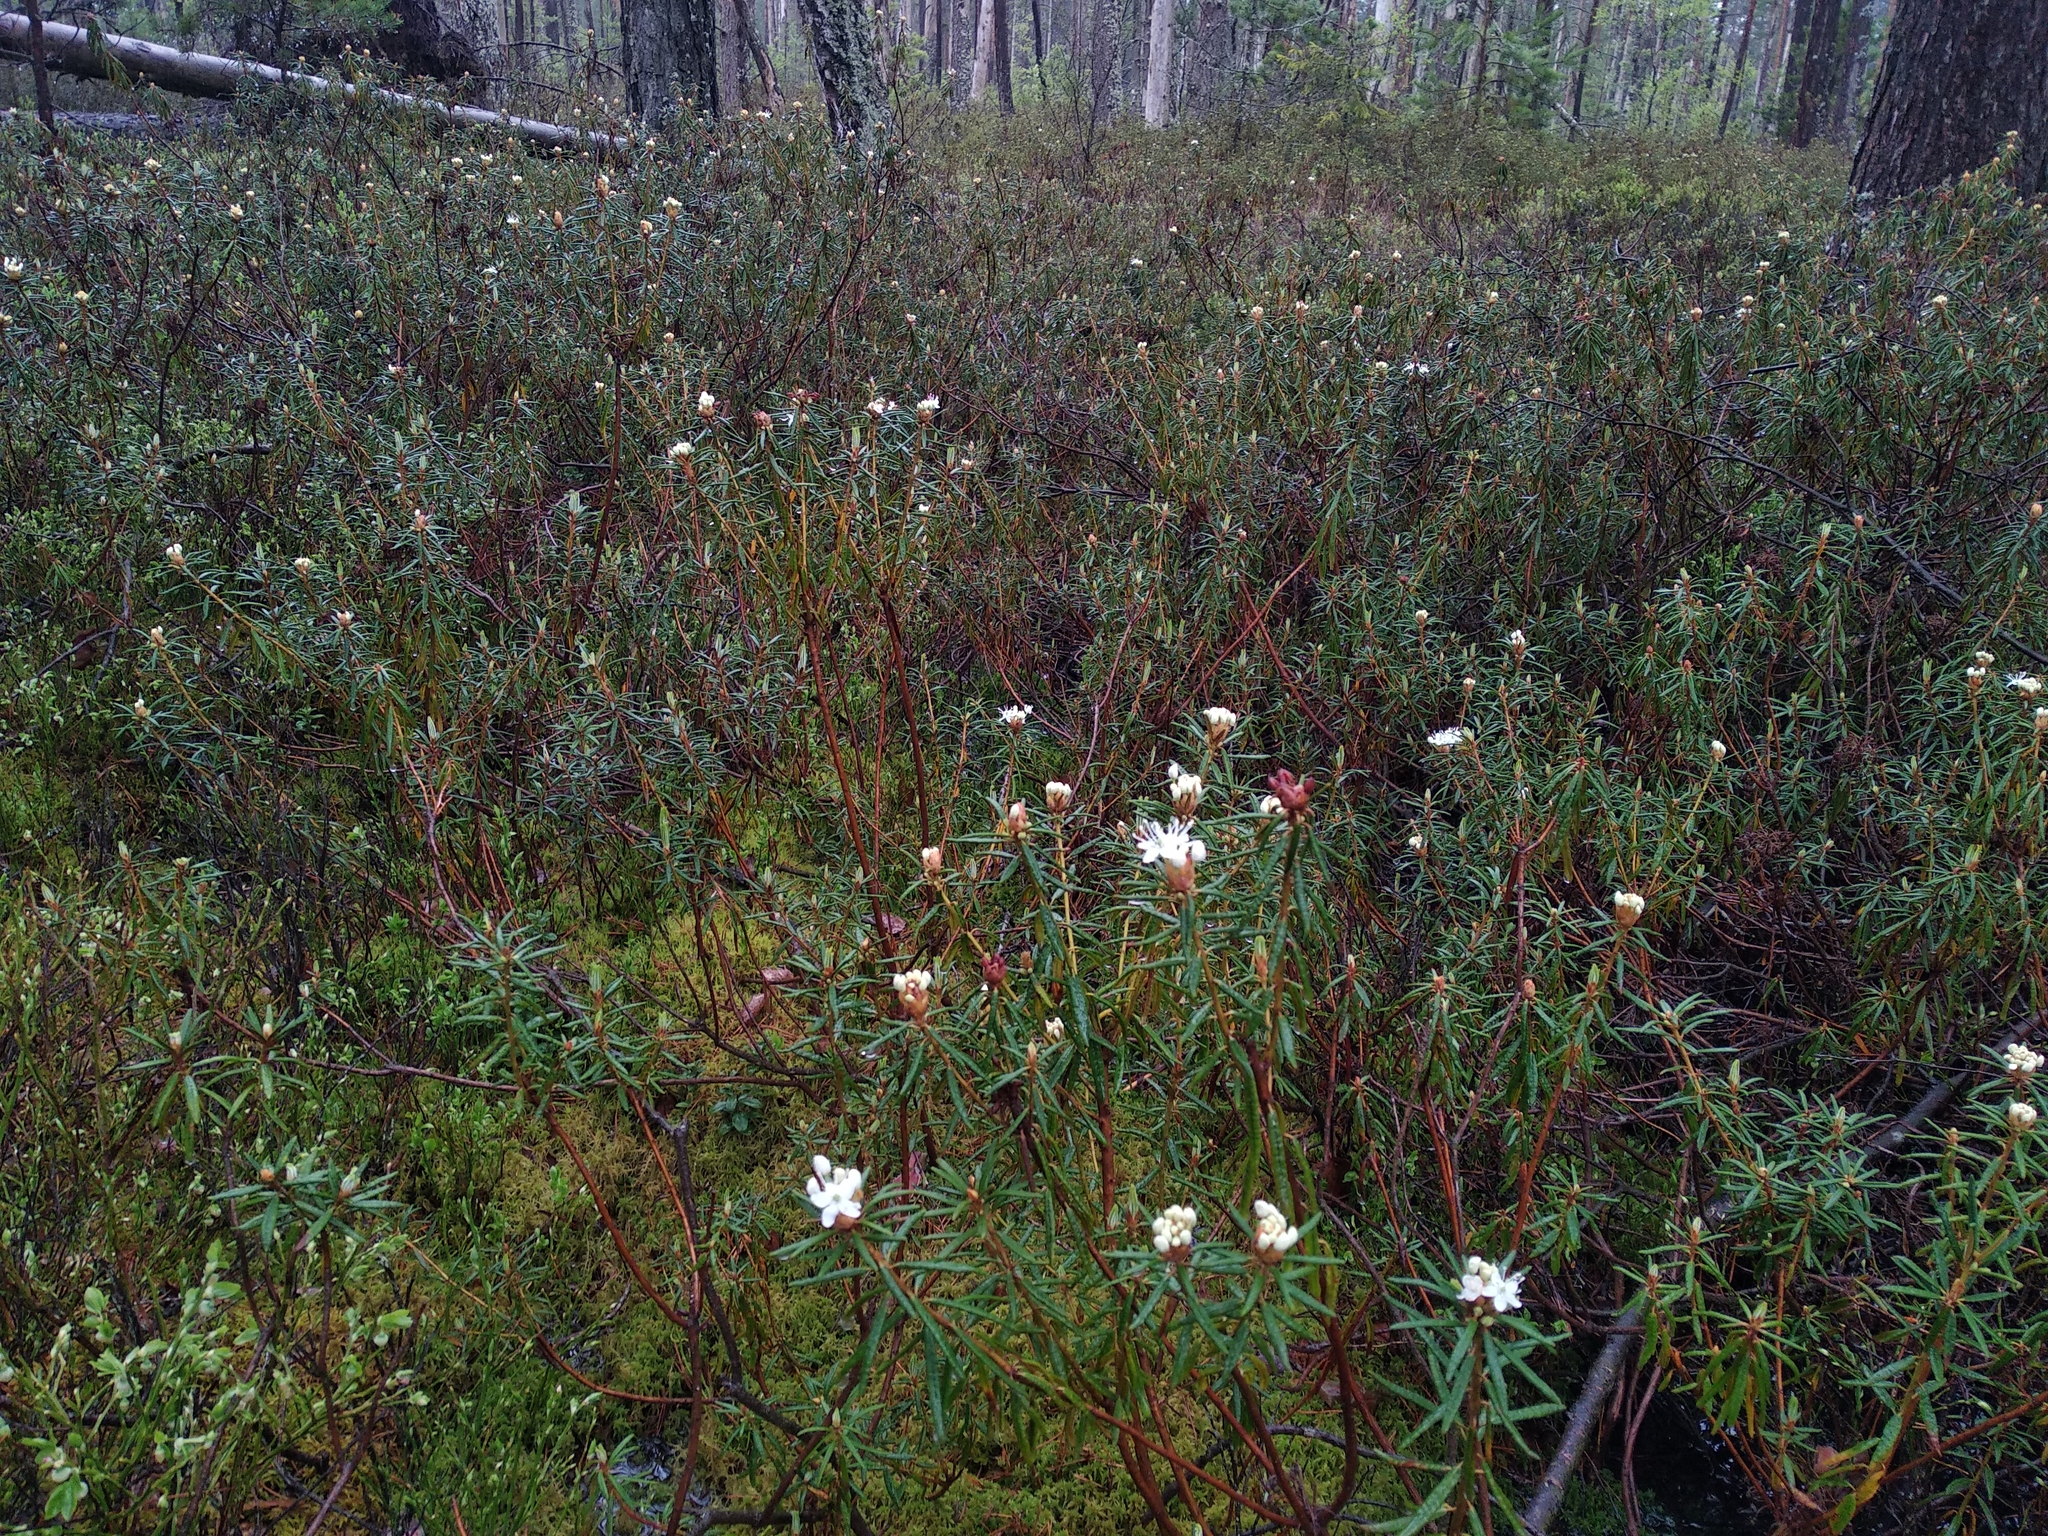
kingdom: Plantae
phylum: Tracheophyta
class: Magnoliopsida
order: Ericales
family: Ericaceae
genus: Rhododendron
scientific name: Rhododendron tomentosum
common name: Marsh labrador tea
